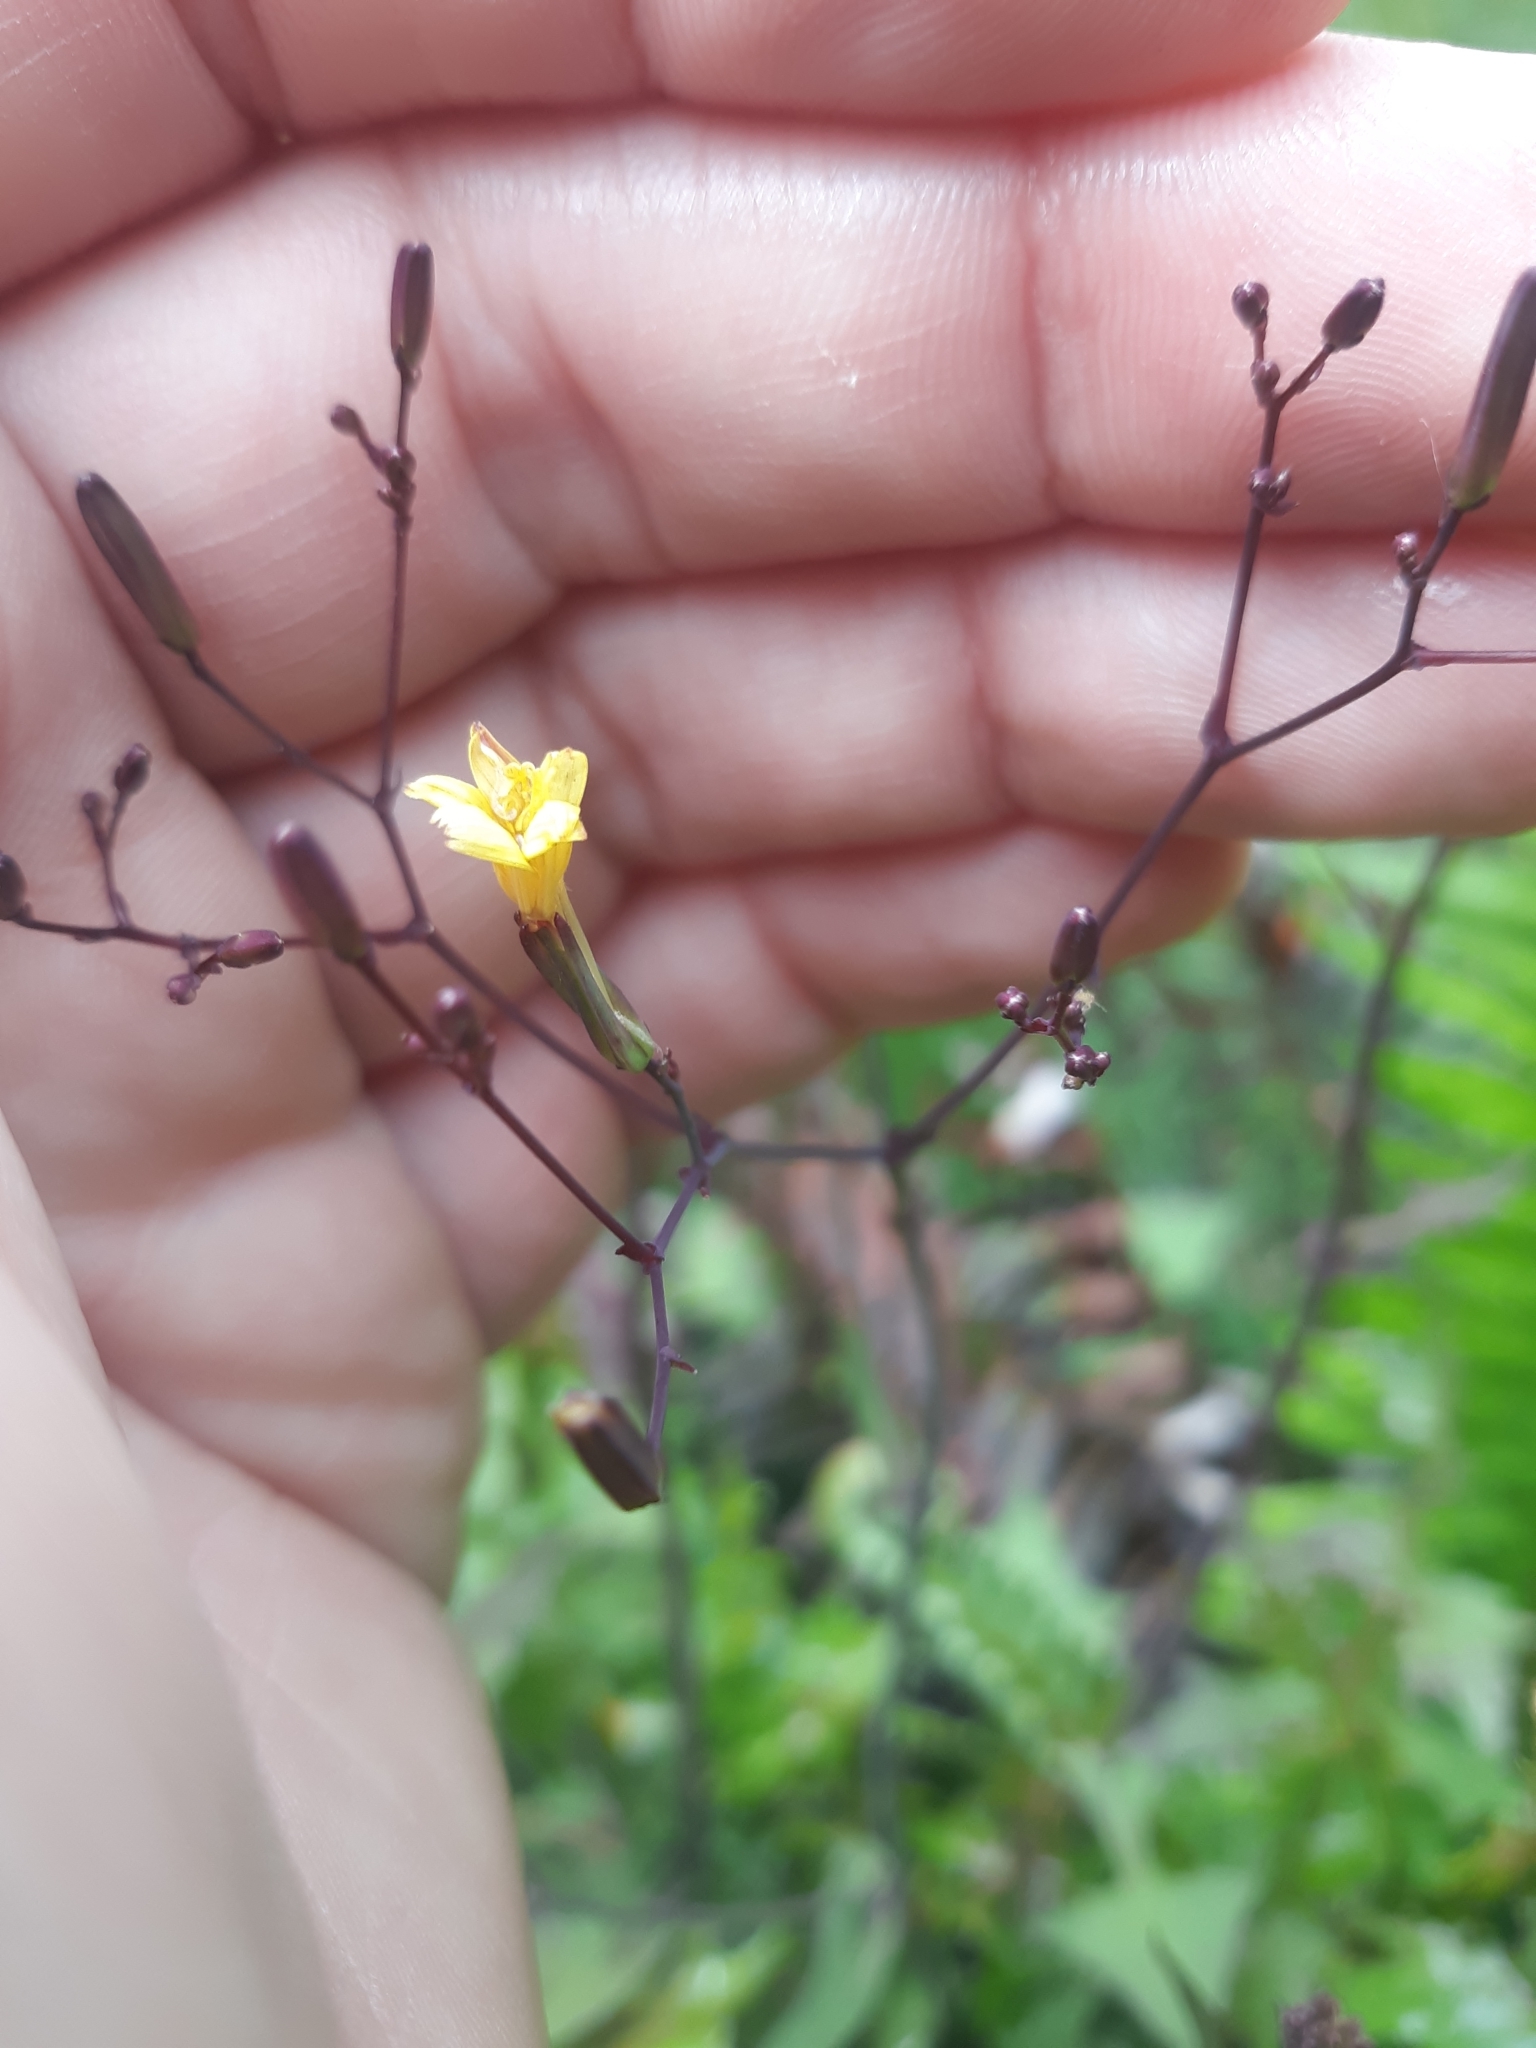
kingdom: Plantae
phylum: Tracheophyta
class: Magnoliopsida
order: Asterales
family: Asteraceae
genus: Mycelis
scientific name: Mycelis muralis
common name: Wall lettuce
